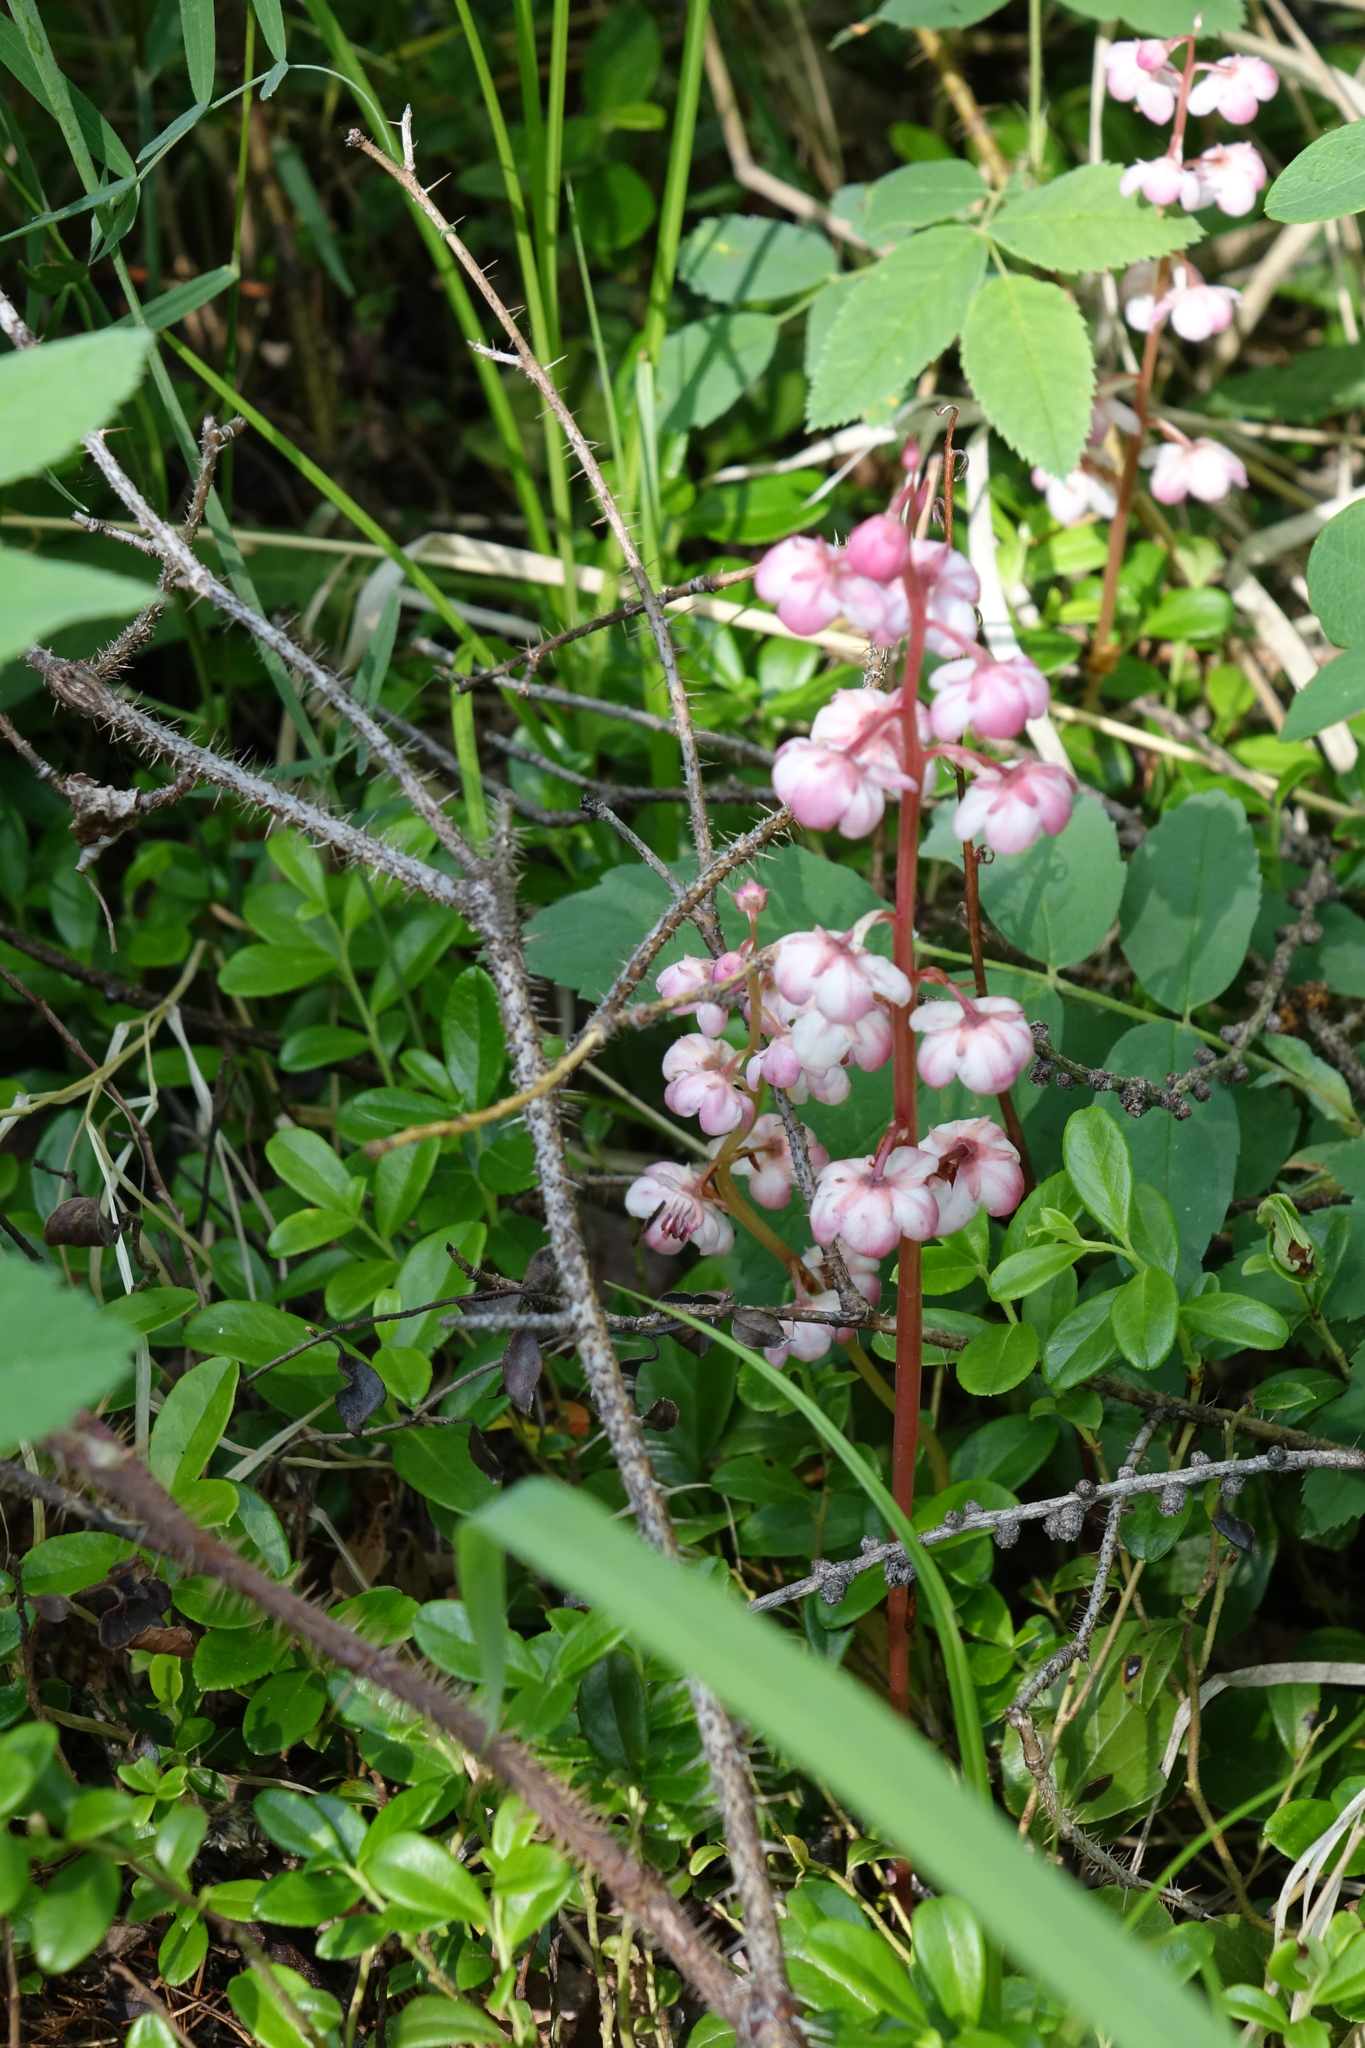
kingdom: Plantae
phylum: Tracheophyta
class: Magnoliopsida
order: Ericales
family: Ericaceae
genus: Pyrola
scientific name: Pyrola asarifolia
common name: Bog wintergreen
